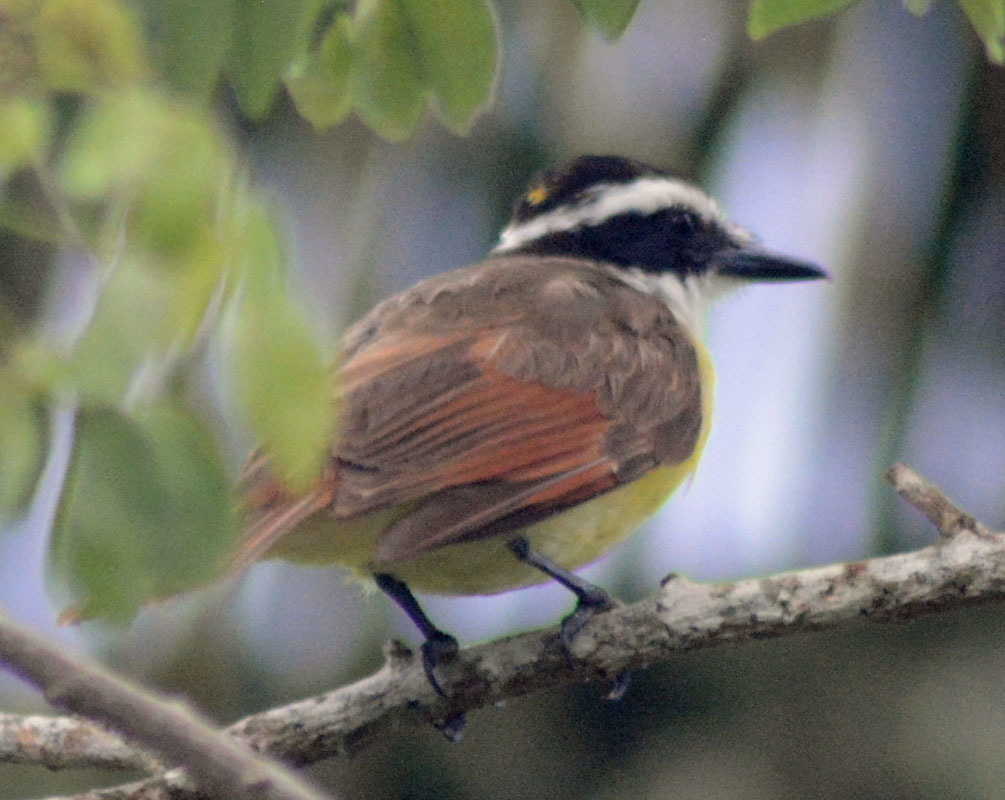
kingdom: Animalia
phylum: Chordata
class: Aves
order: Passeriformes
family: Tyrannidae
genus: Pitangus
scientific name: Pitangus sulphuratus
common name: Great kiskadee
